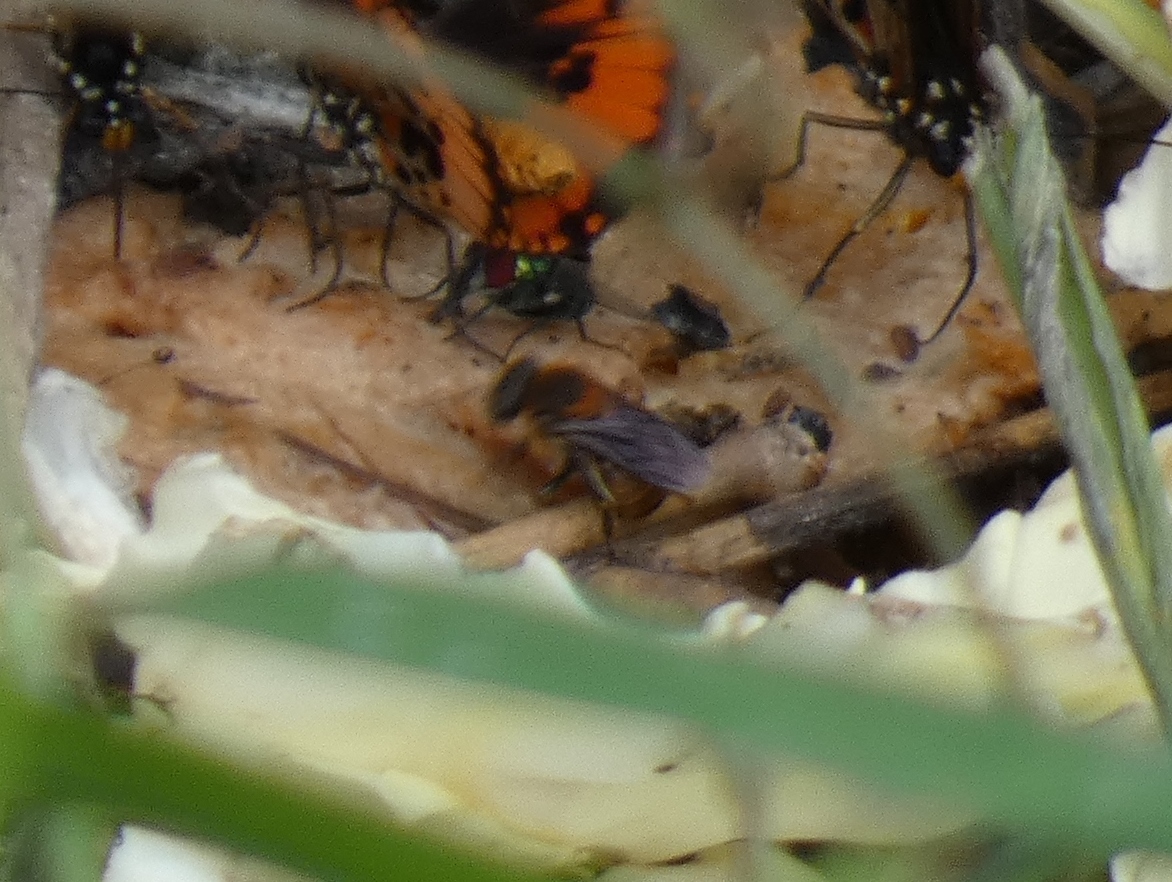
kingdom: Animalia
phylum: Arthropoda
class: Insecta
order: Hymenoptera
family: Apidae
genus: Meliponula
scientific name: Meliponula bocandei
